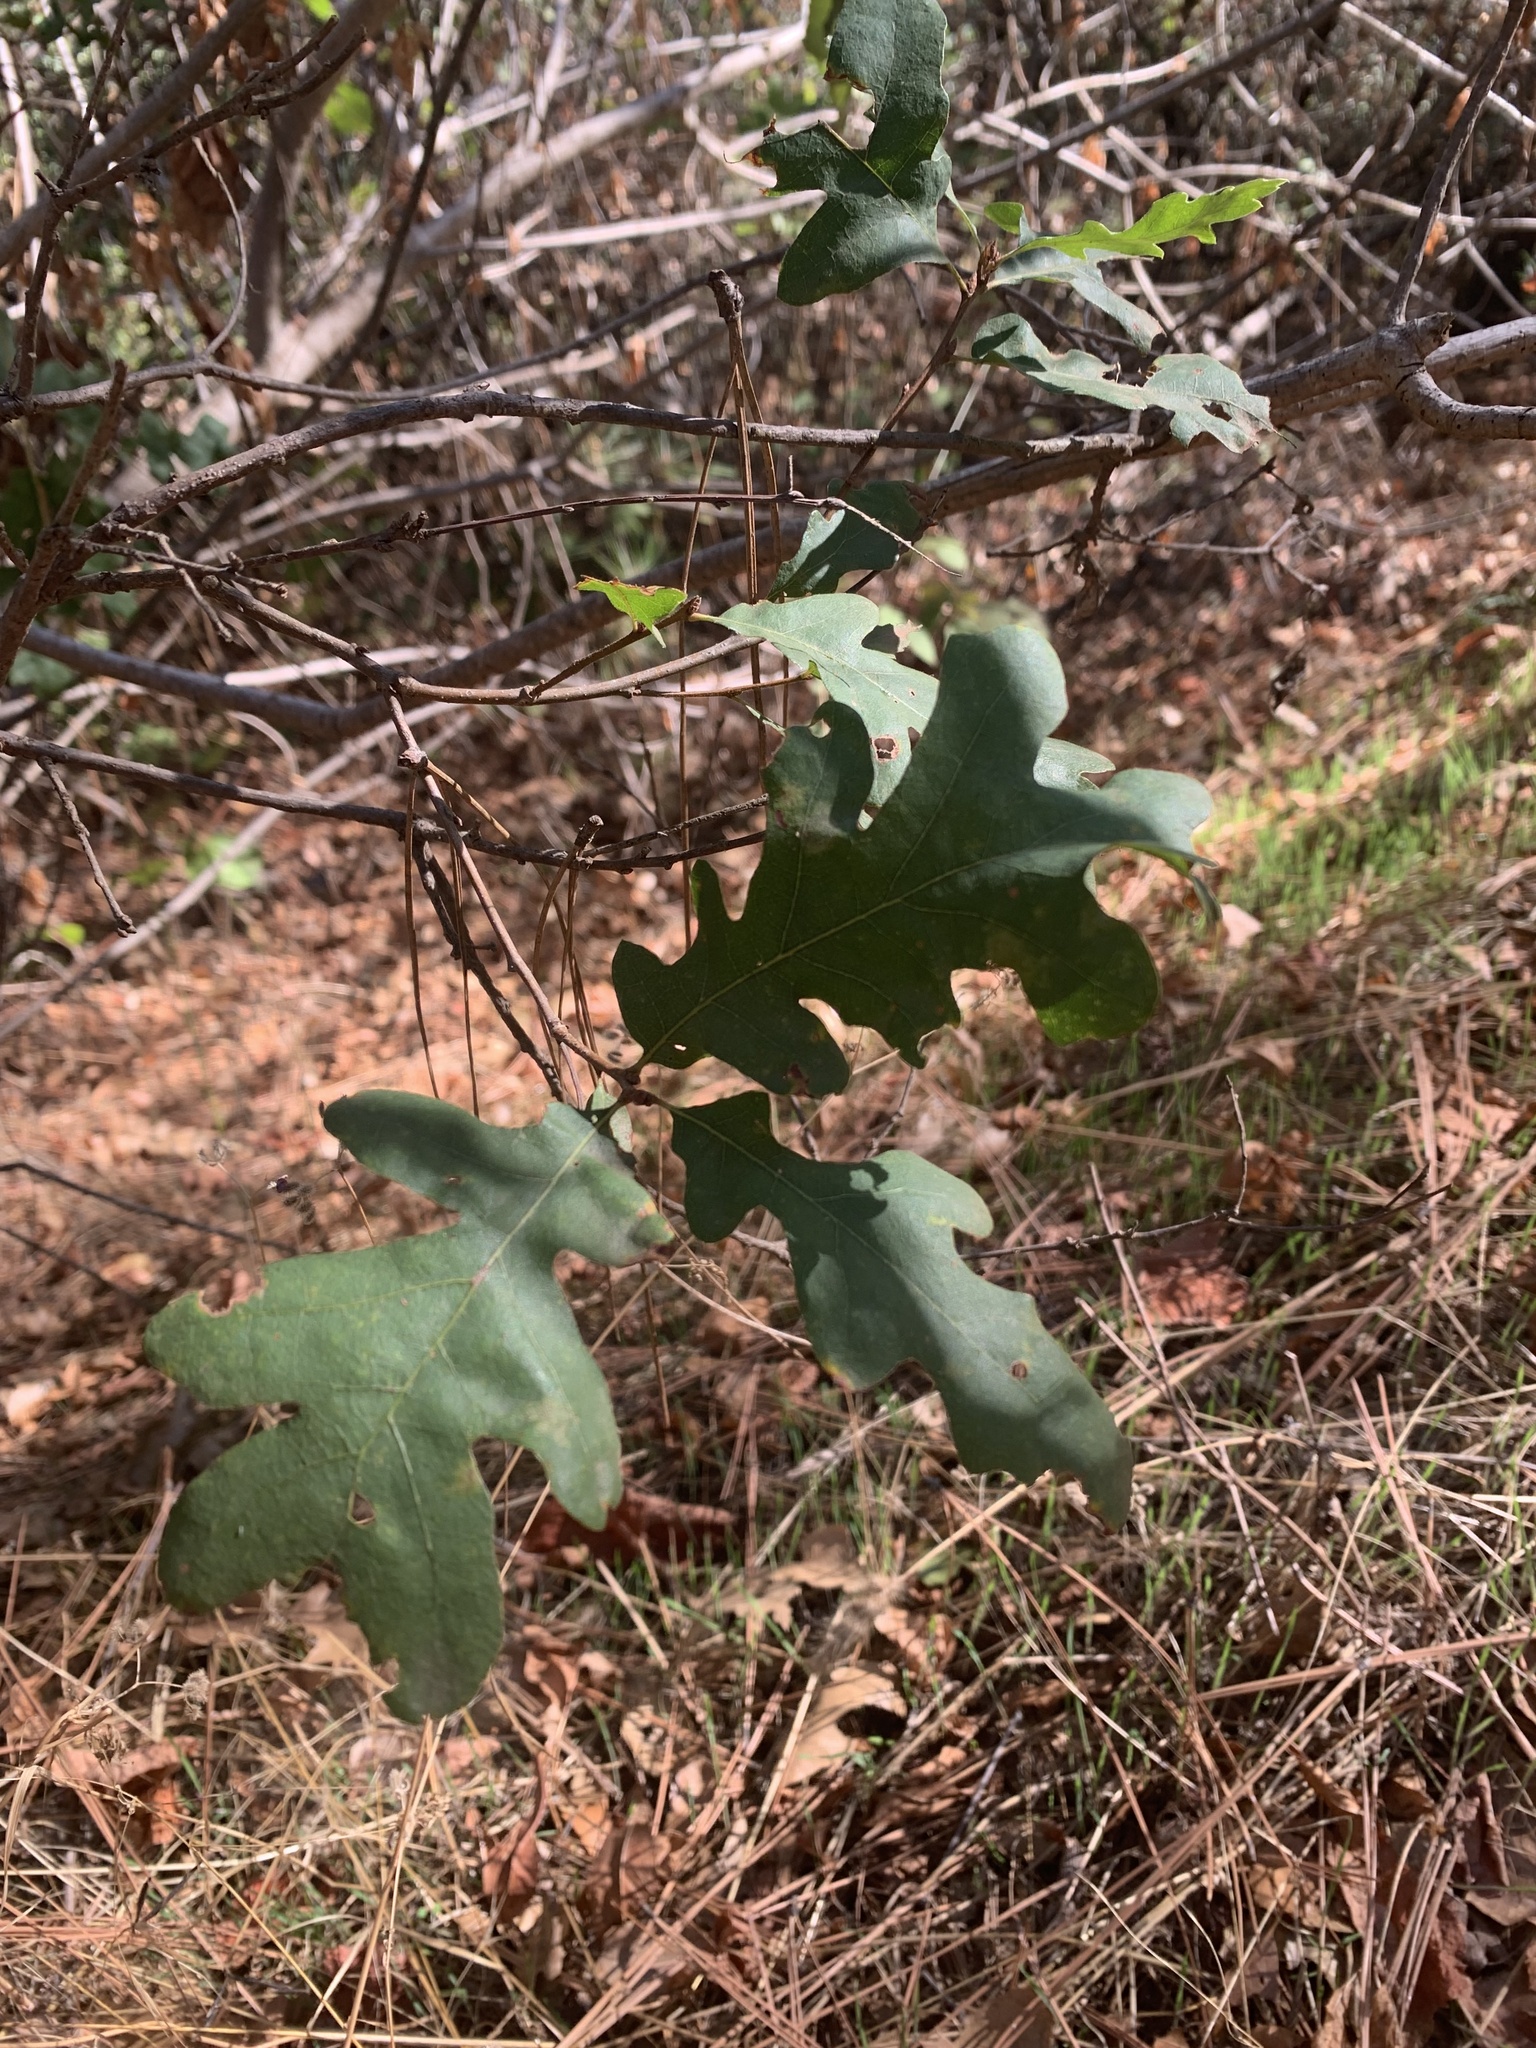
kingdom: Plantae
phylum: Tracheophyta
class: Magnoliopsida
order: Fagales
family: Fagaceae
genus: Quercus
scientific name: Quercus lobata
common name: Valley oak
